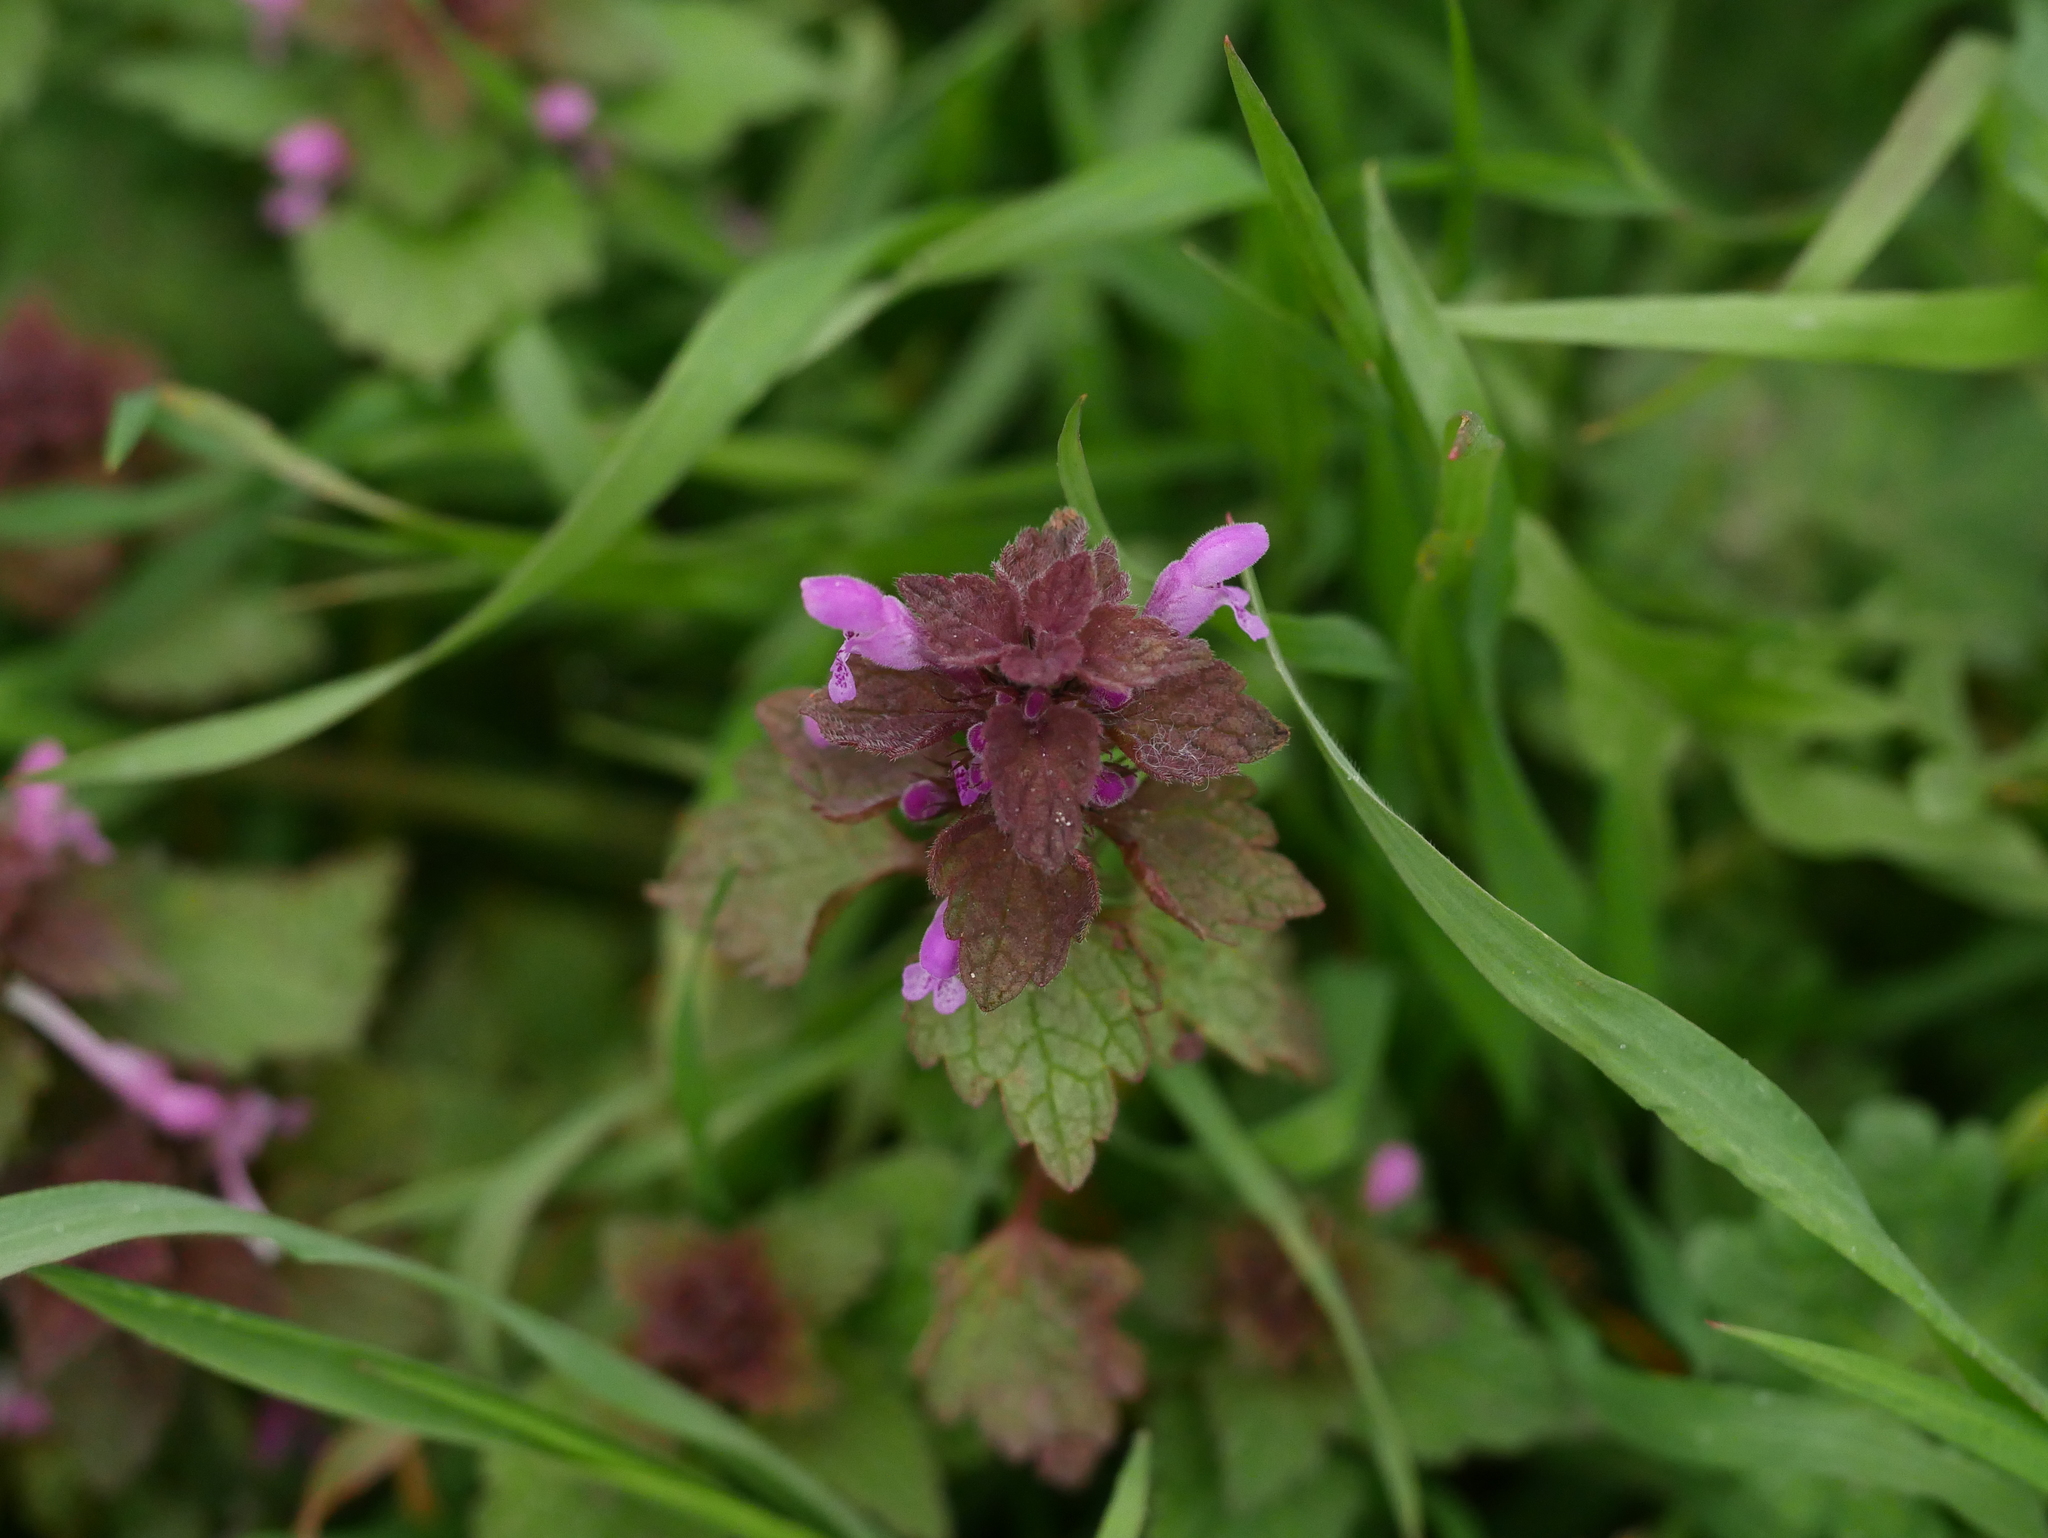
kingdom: Plantae
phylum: Tracheophyta
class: Magnoliopsida
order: Lamiales
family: Lamiaceae
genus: Lamium
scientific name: Lamium purpureum
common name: Red dead-nettle
